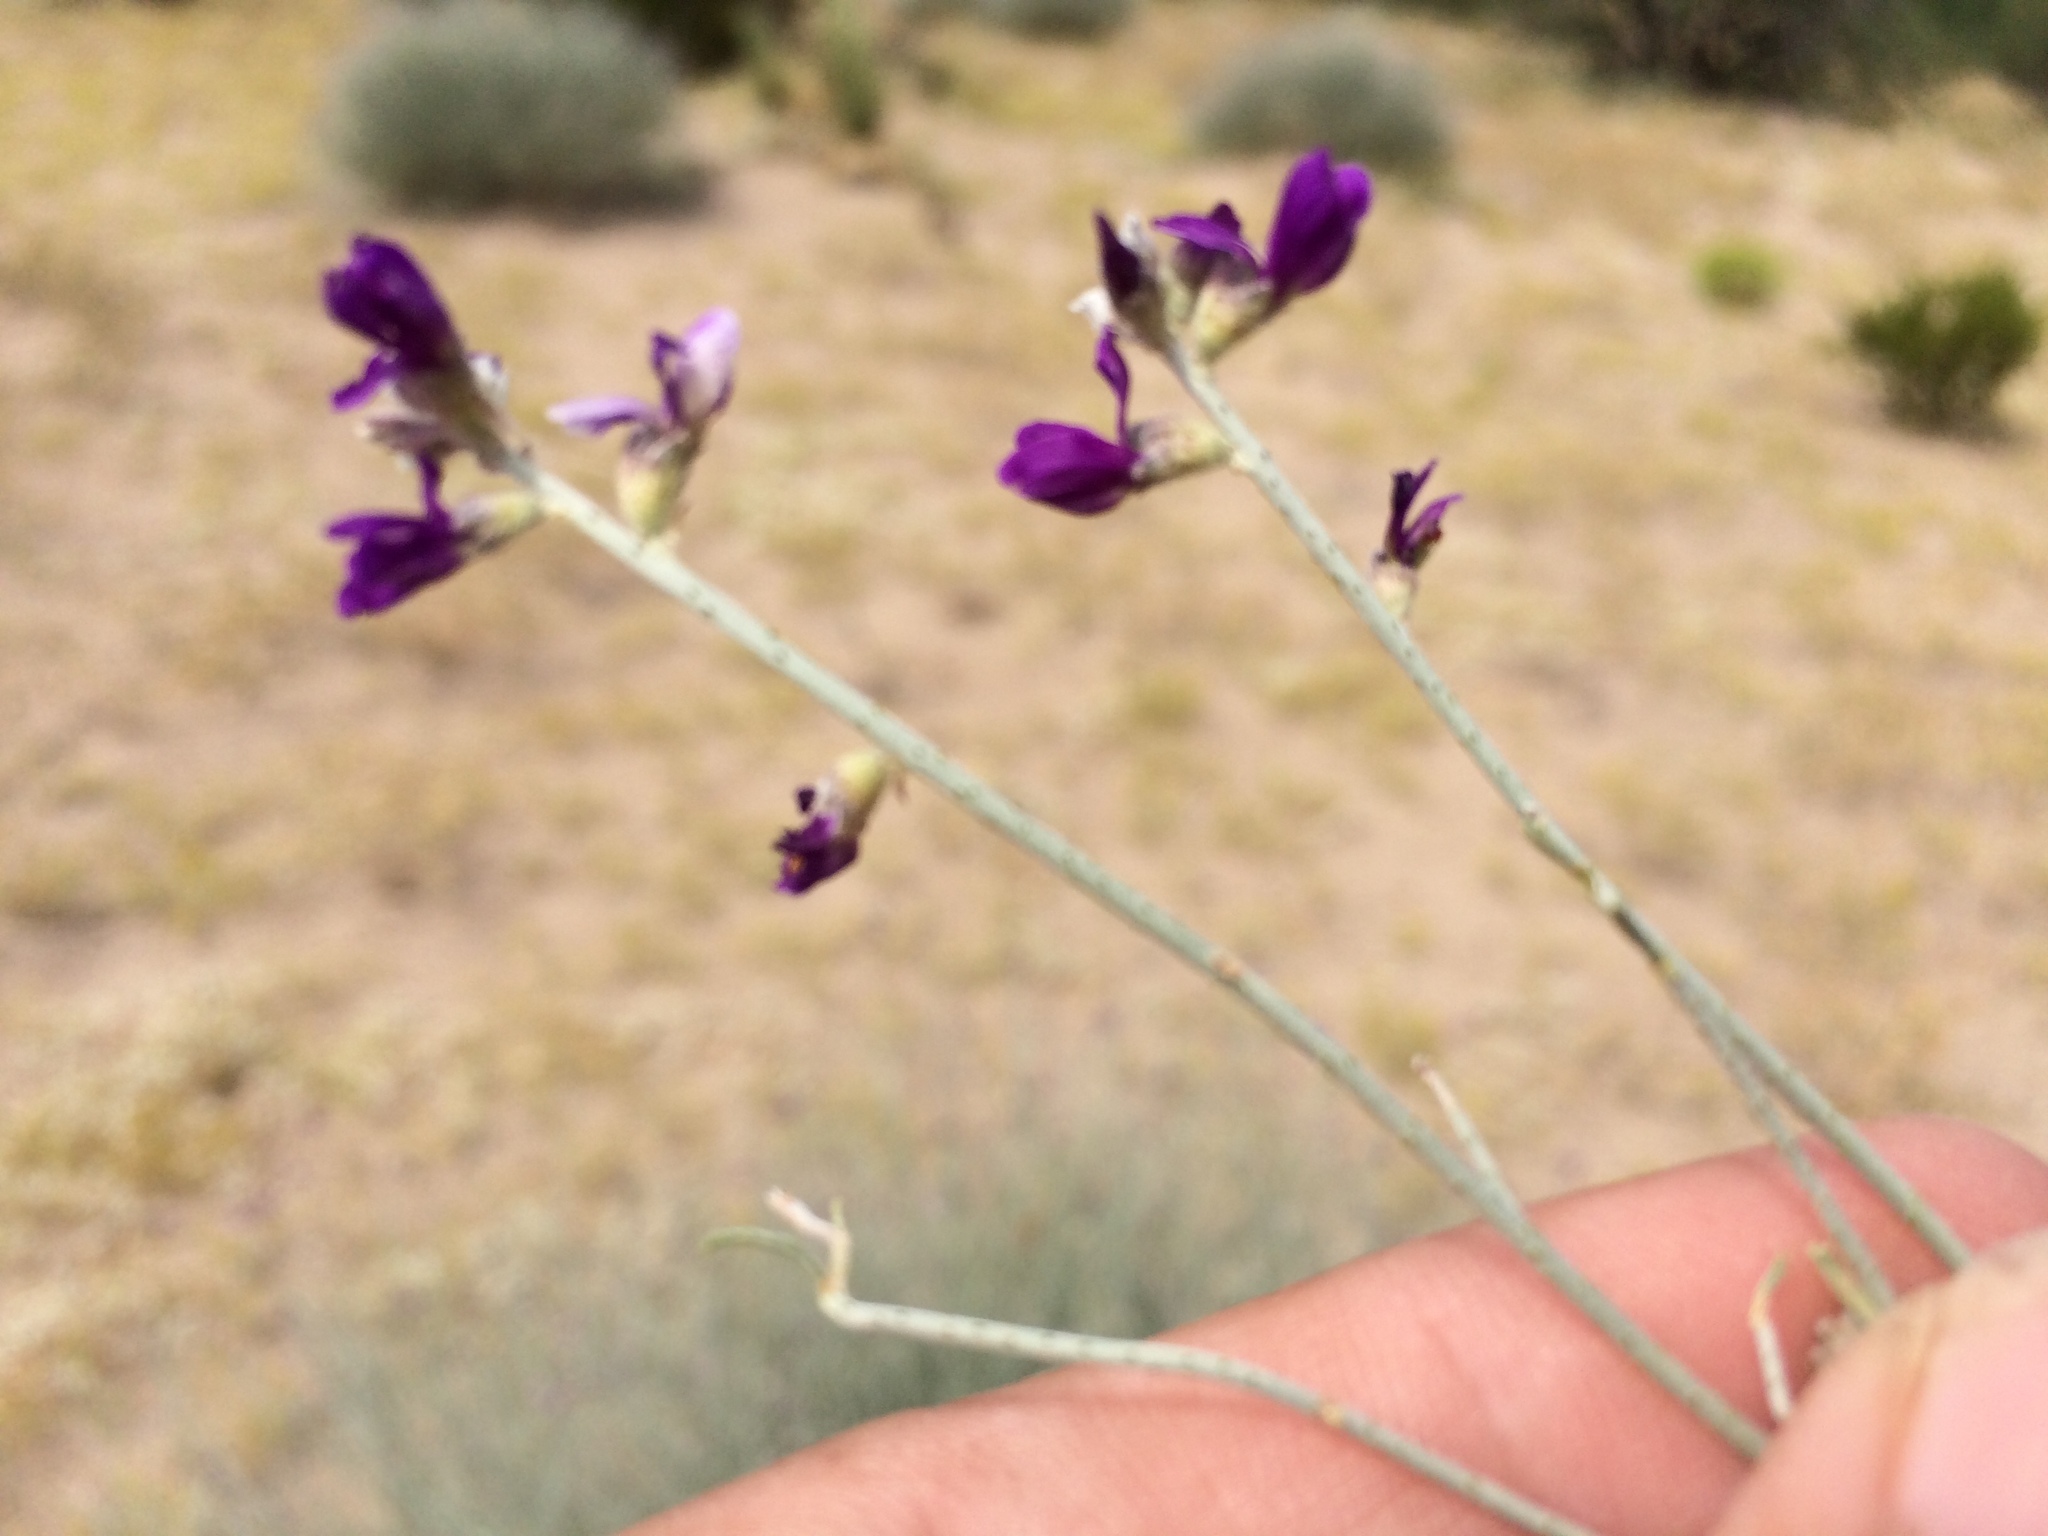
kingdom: Plantae
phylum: Tracheophyta
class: Magnoliopsida
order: Fabales
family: Fabaceae
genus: Psorothamnus
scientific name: Psorothamnus scoparius
